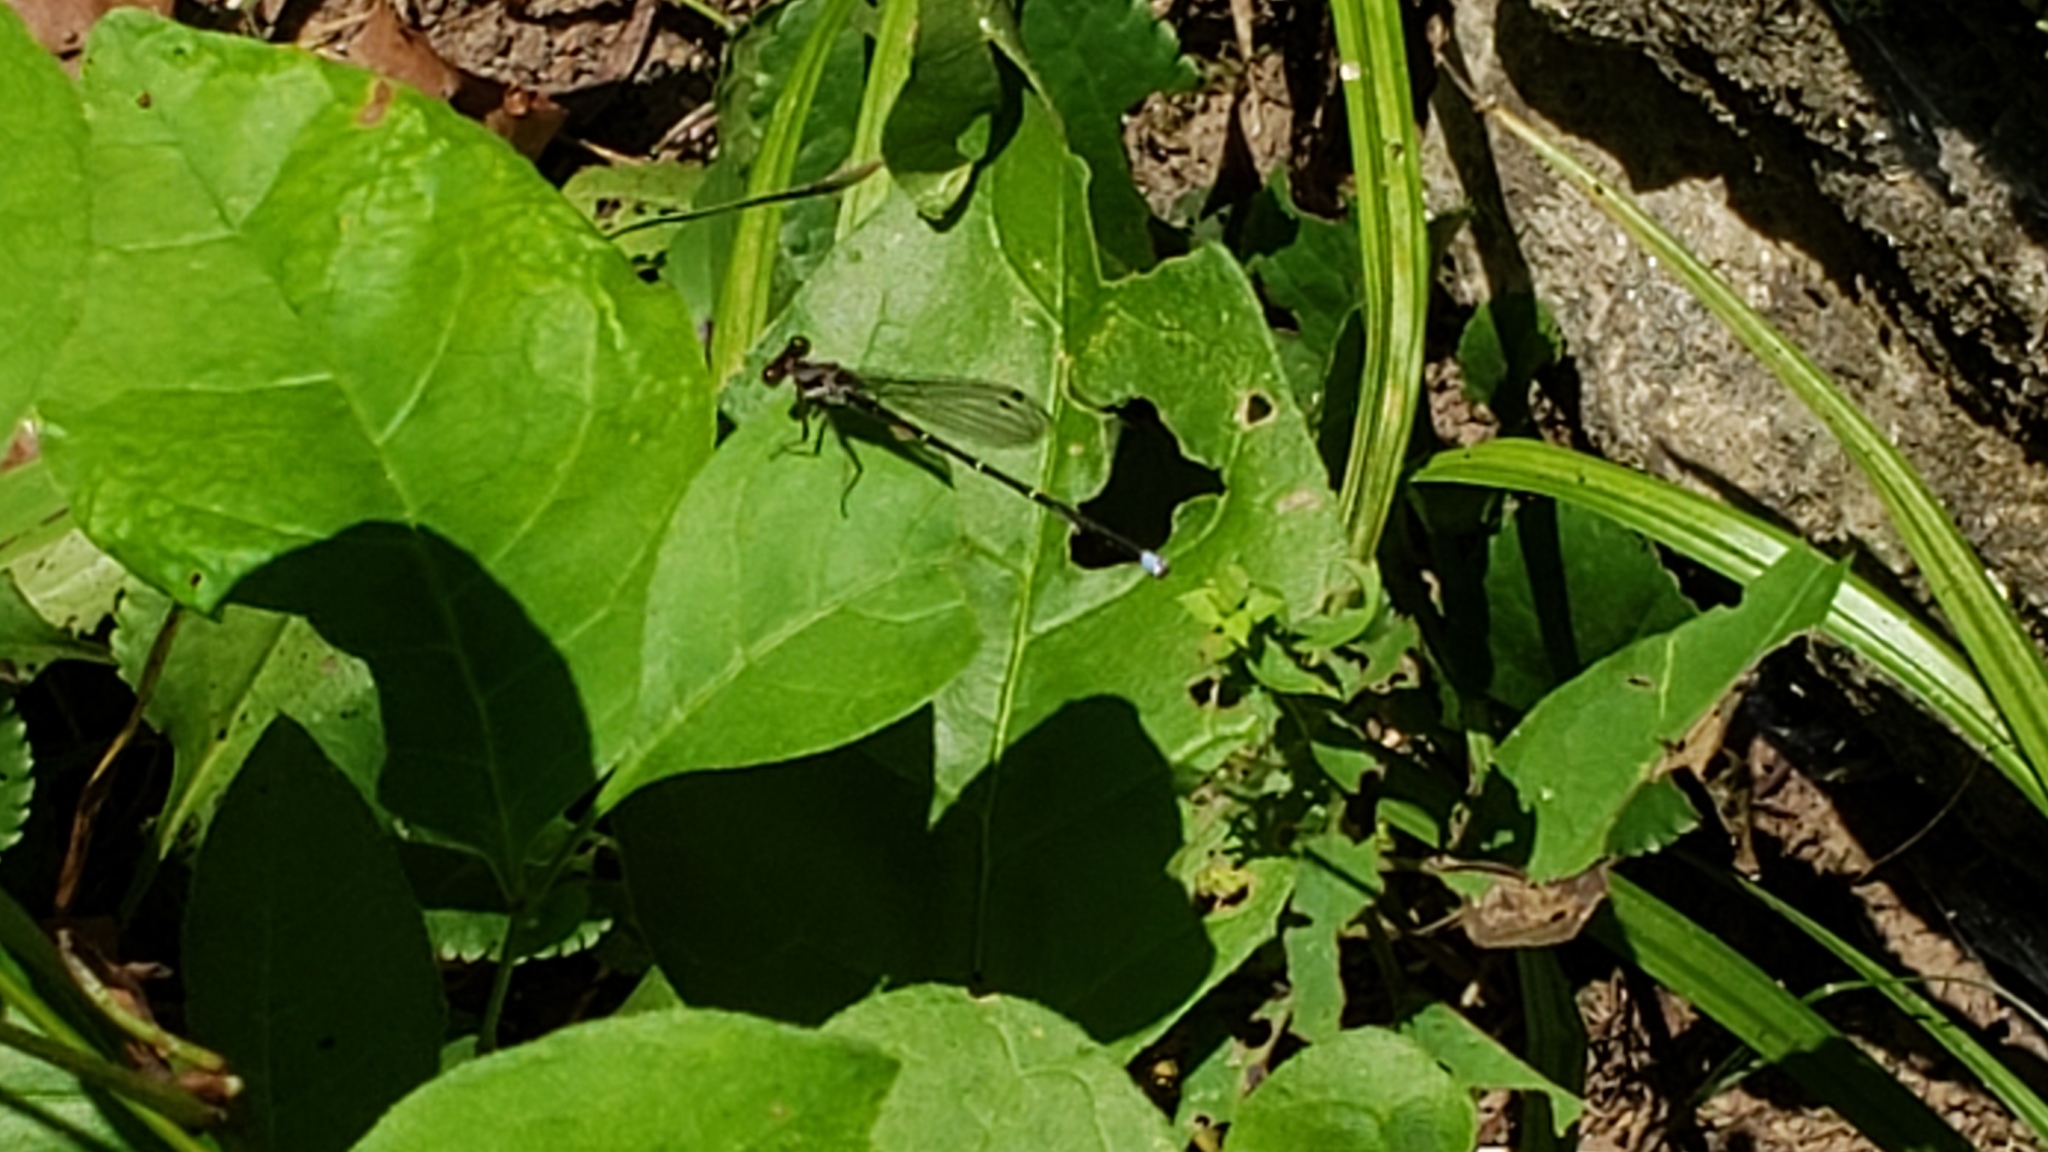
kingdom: Animalia
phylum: Arthropoda
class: Insecta
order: Odonata
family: Coenagrionidae
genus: Argia
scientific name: Argia translata
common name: Dusky dancer
